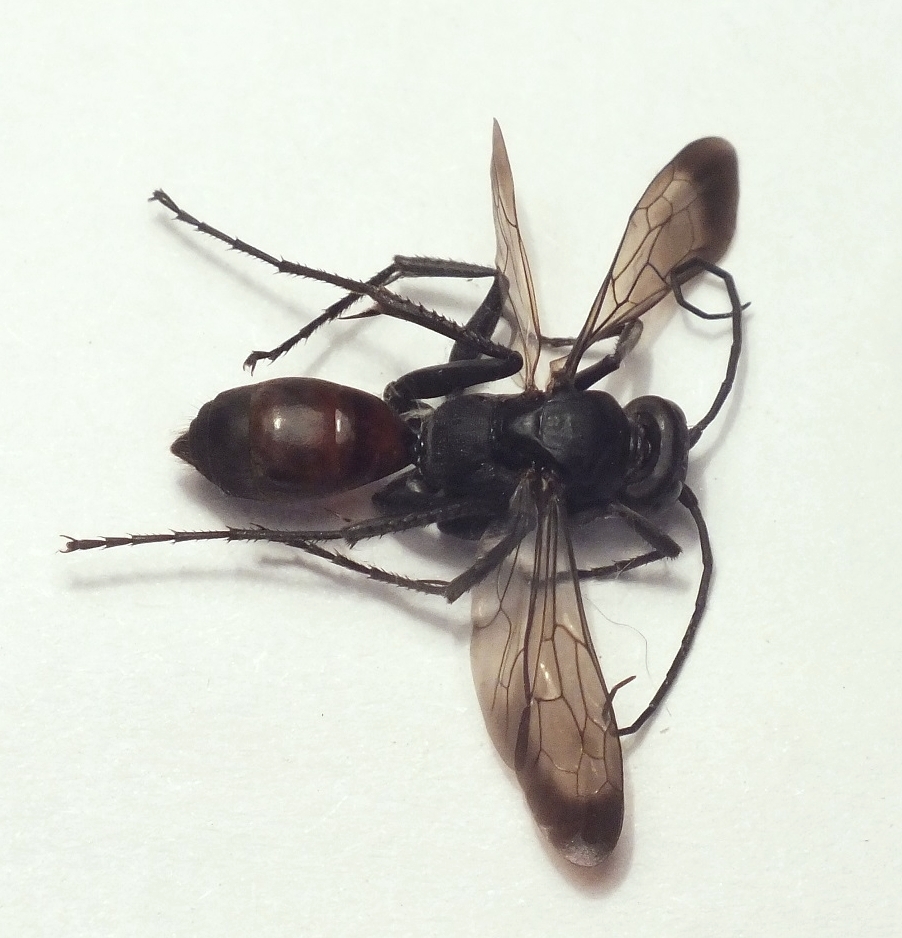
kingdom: Animalia
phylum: Arthropoda
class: Insecta
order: Hymenoptera
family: Pompilidae
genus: Cryptocheilus
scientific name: Cryptocheilus fischeri
